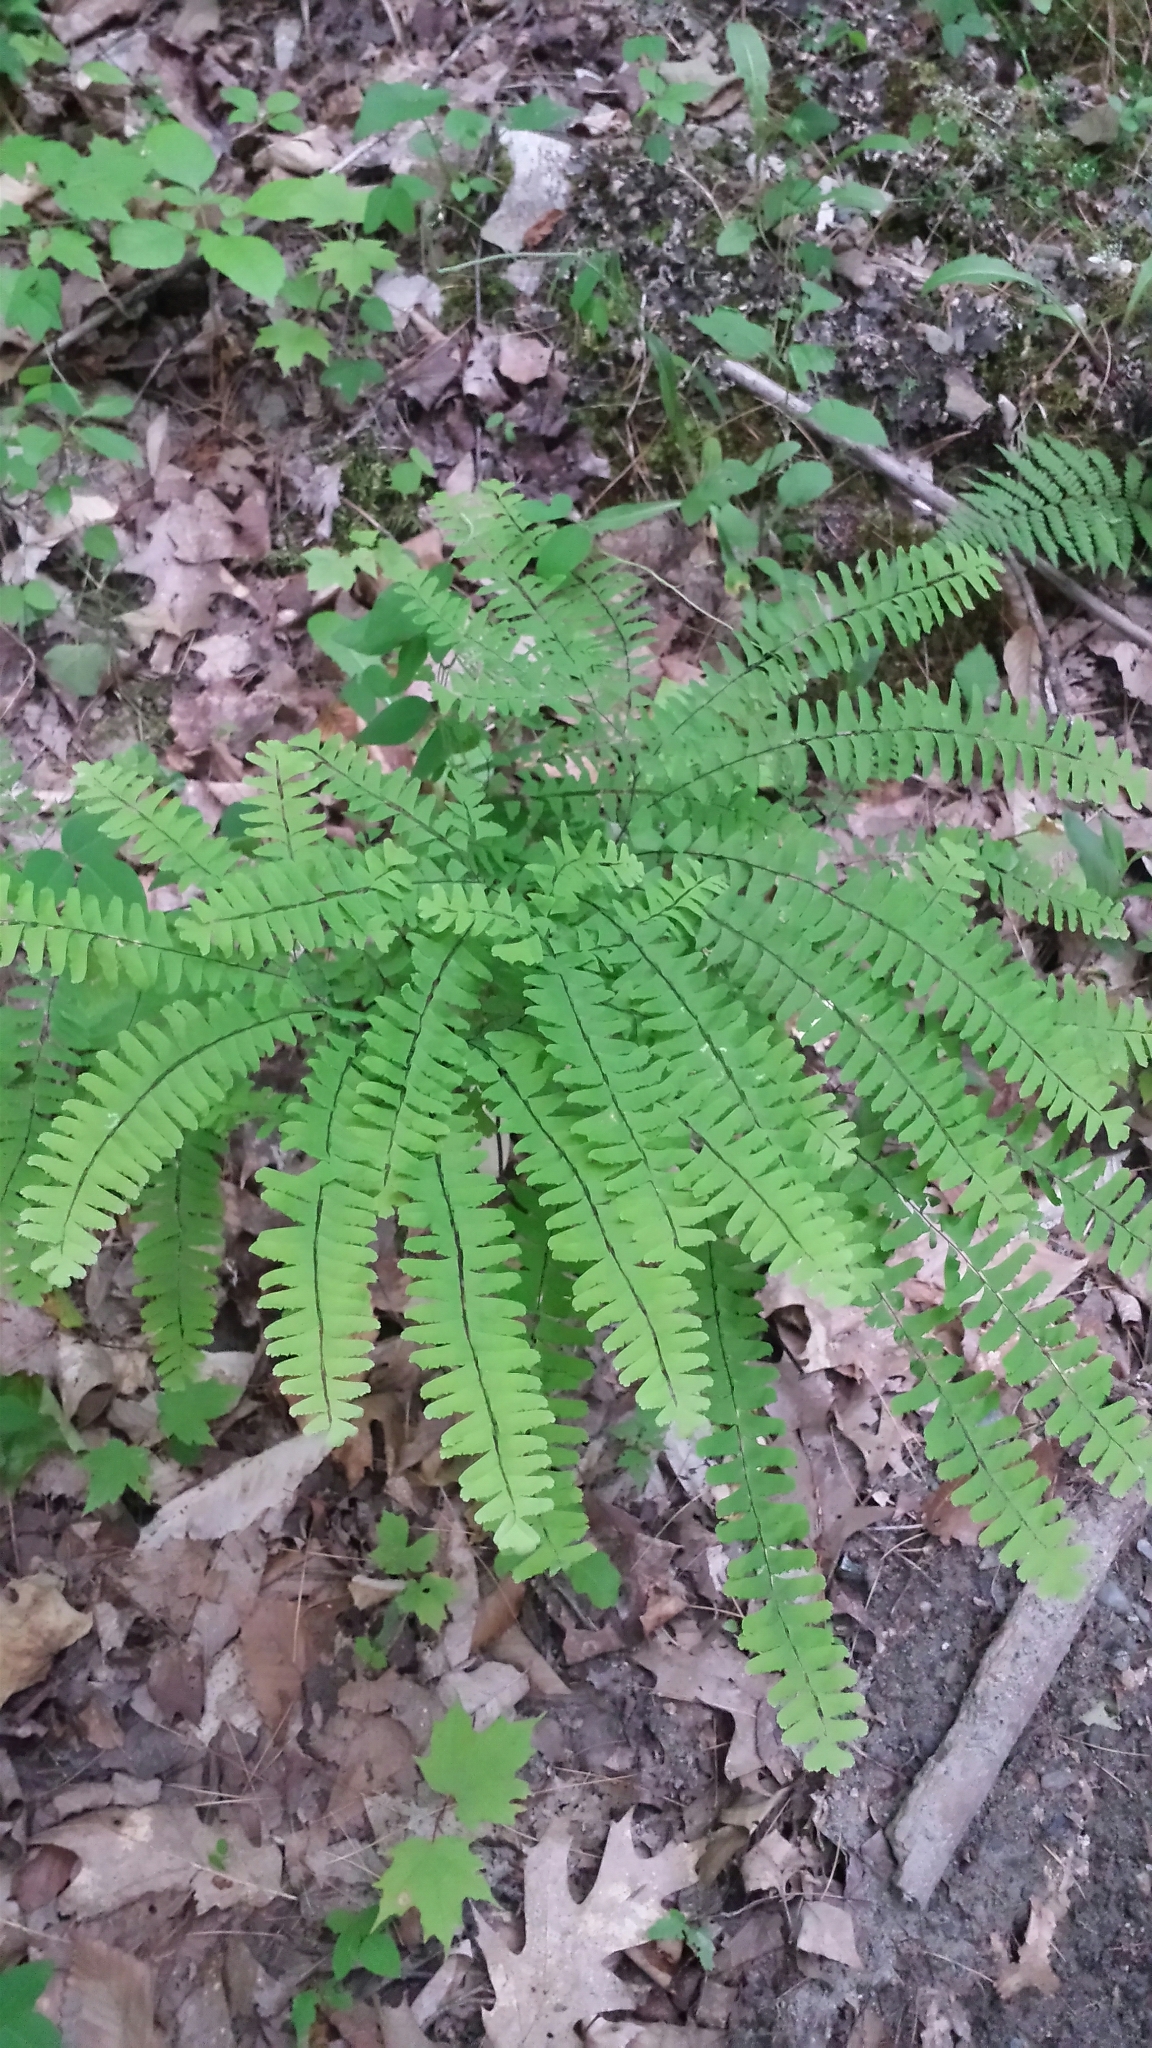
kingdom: Plantae
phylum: Tracheophyta
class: Polypodiopsida
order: Polypodiales
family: Pteridaceae
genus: Adiantum
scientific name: Adiantum pedatum
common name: Five-finger fern
